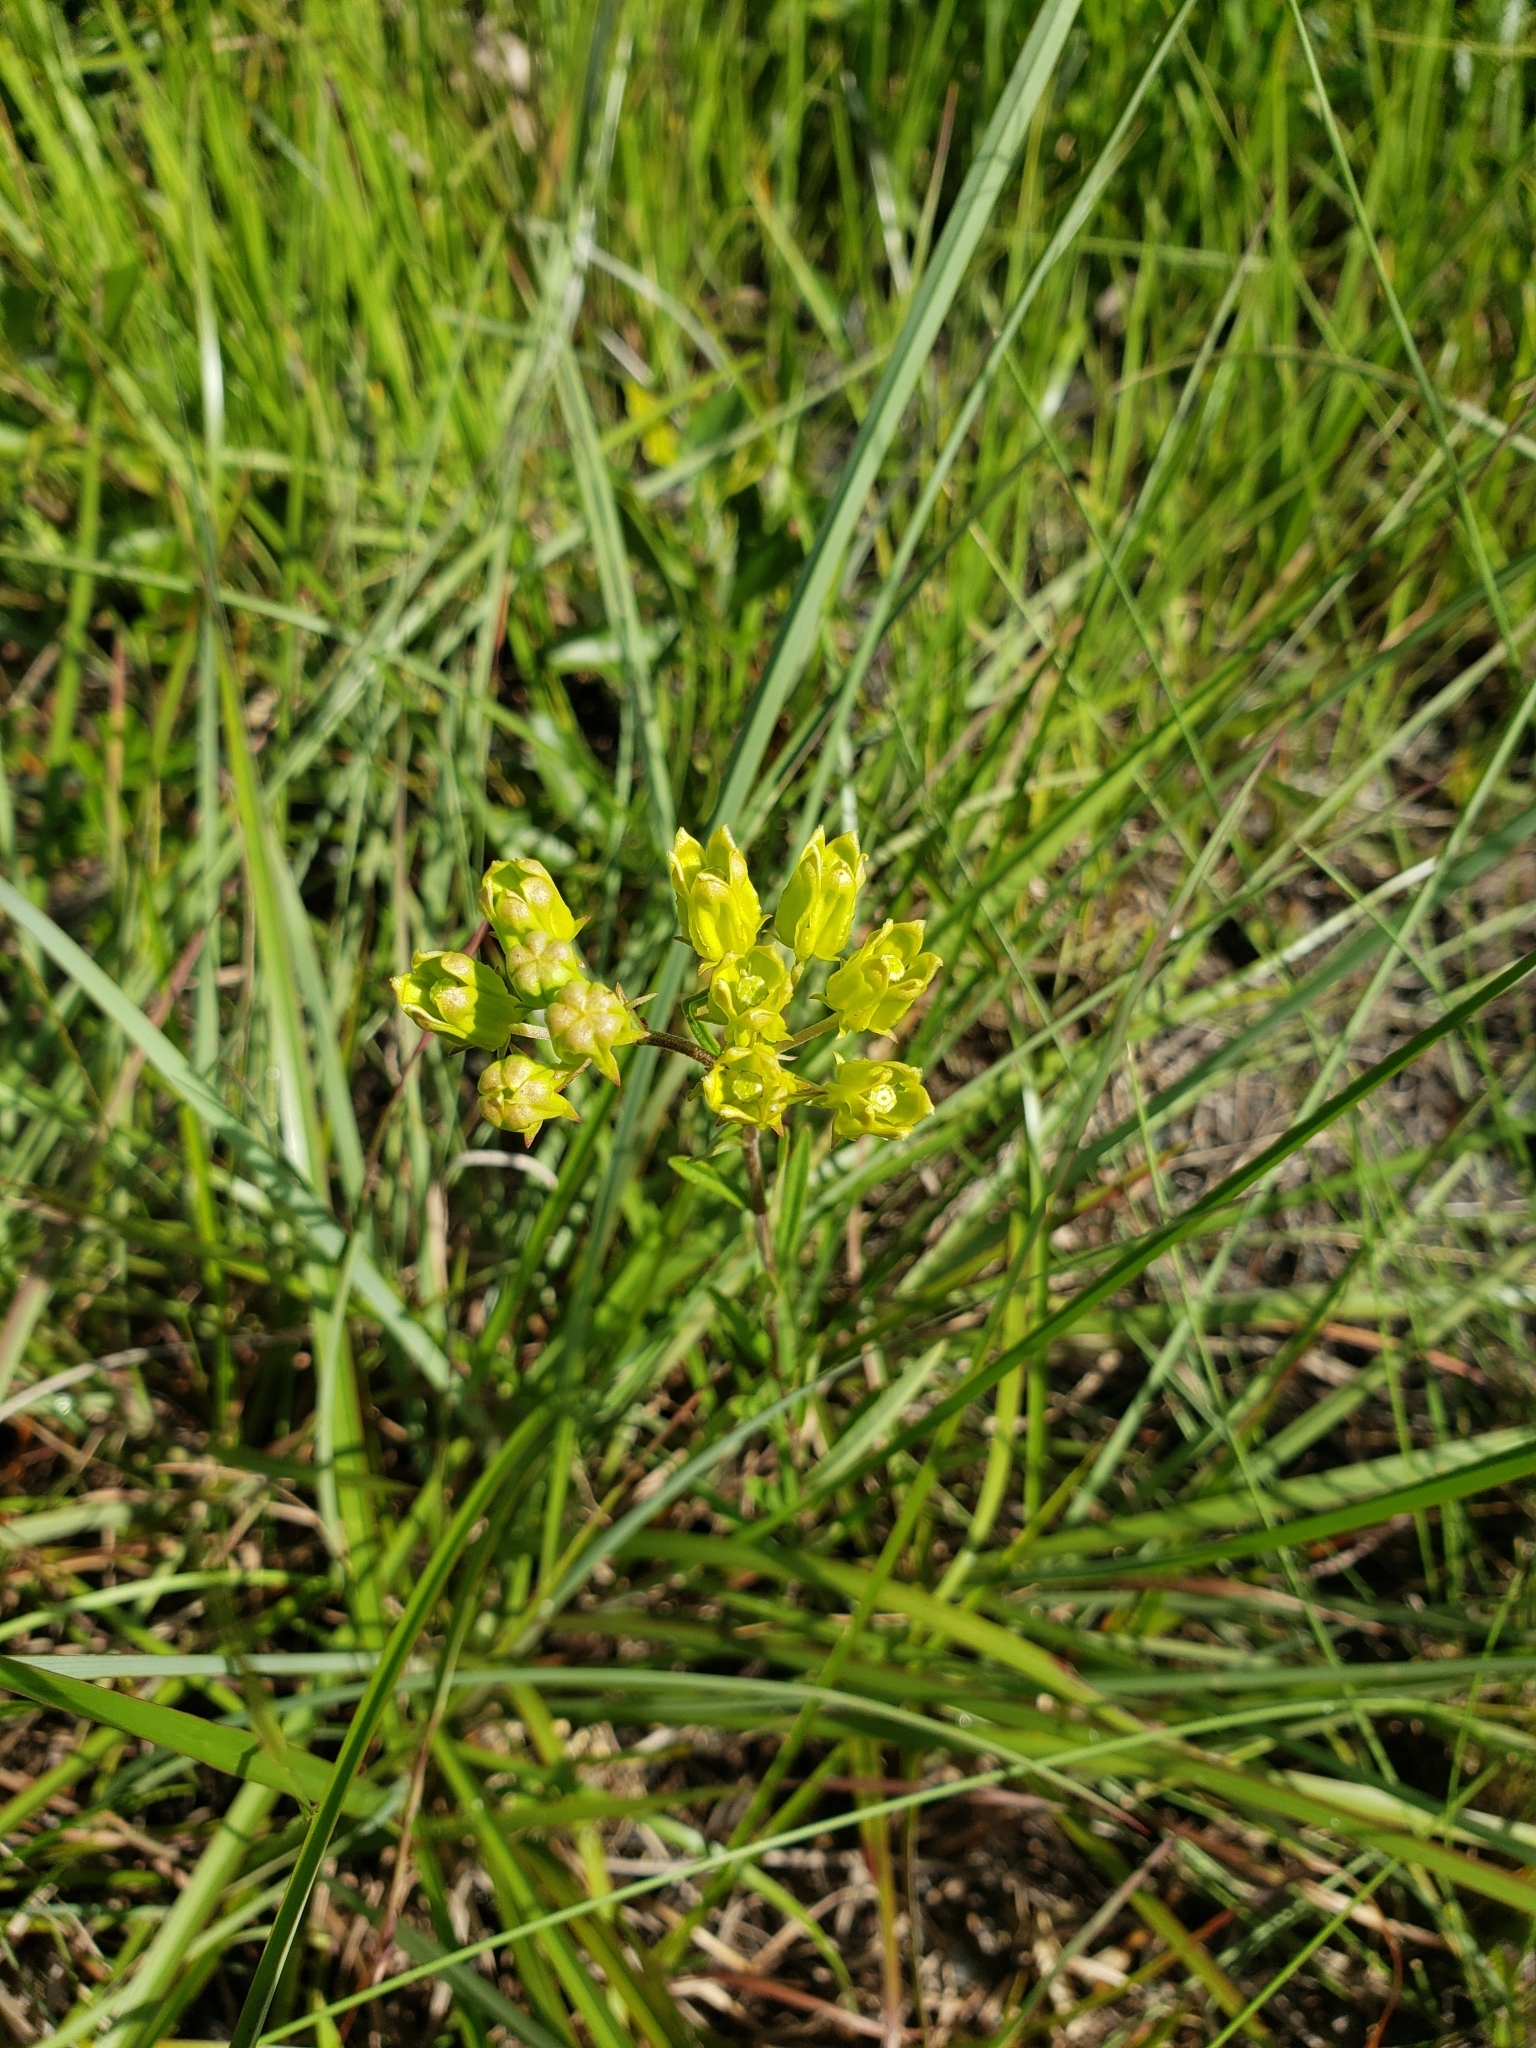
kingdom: Plantae
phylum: Tracheophyta
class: Magnoliopsida
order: Gentianales
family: Apocynaceae
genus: Asclepias
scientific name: Asclepias pedicellata
